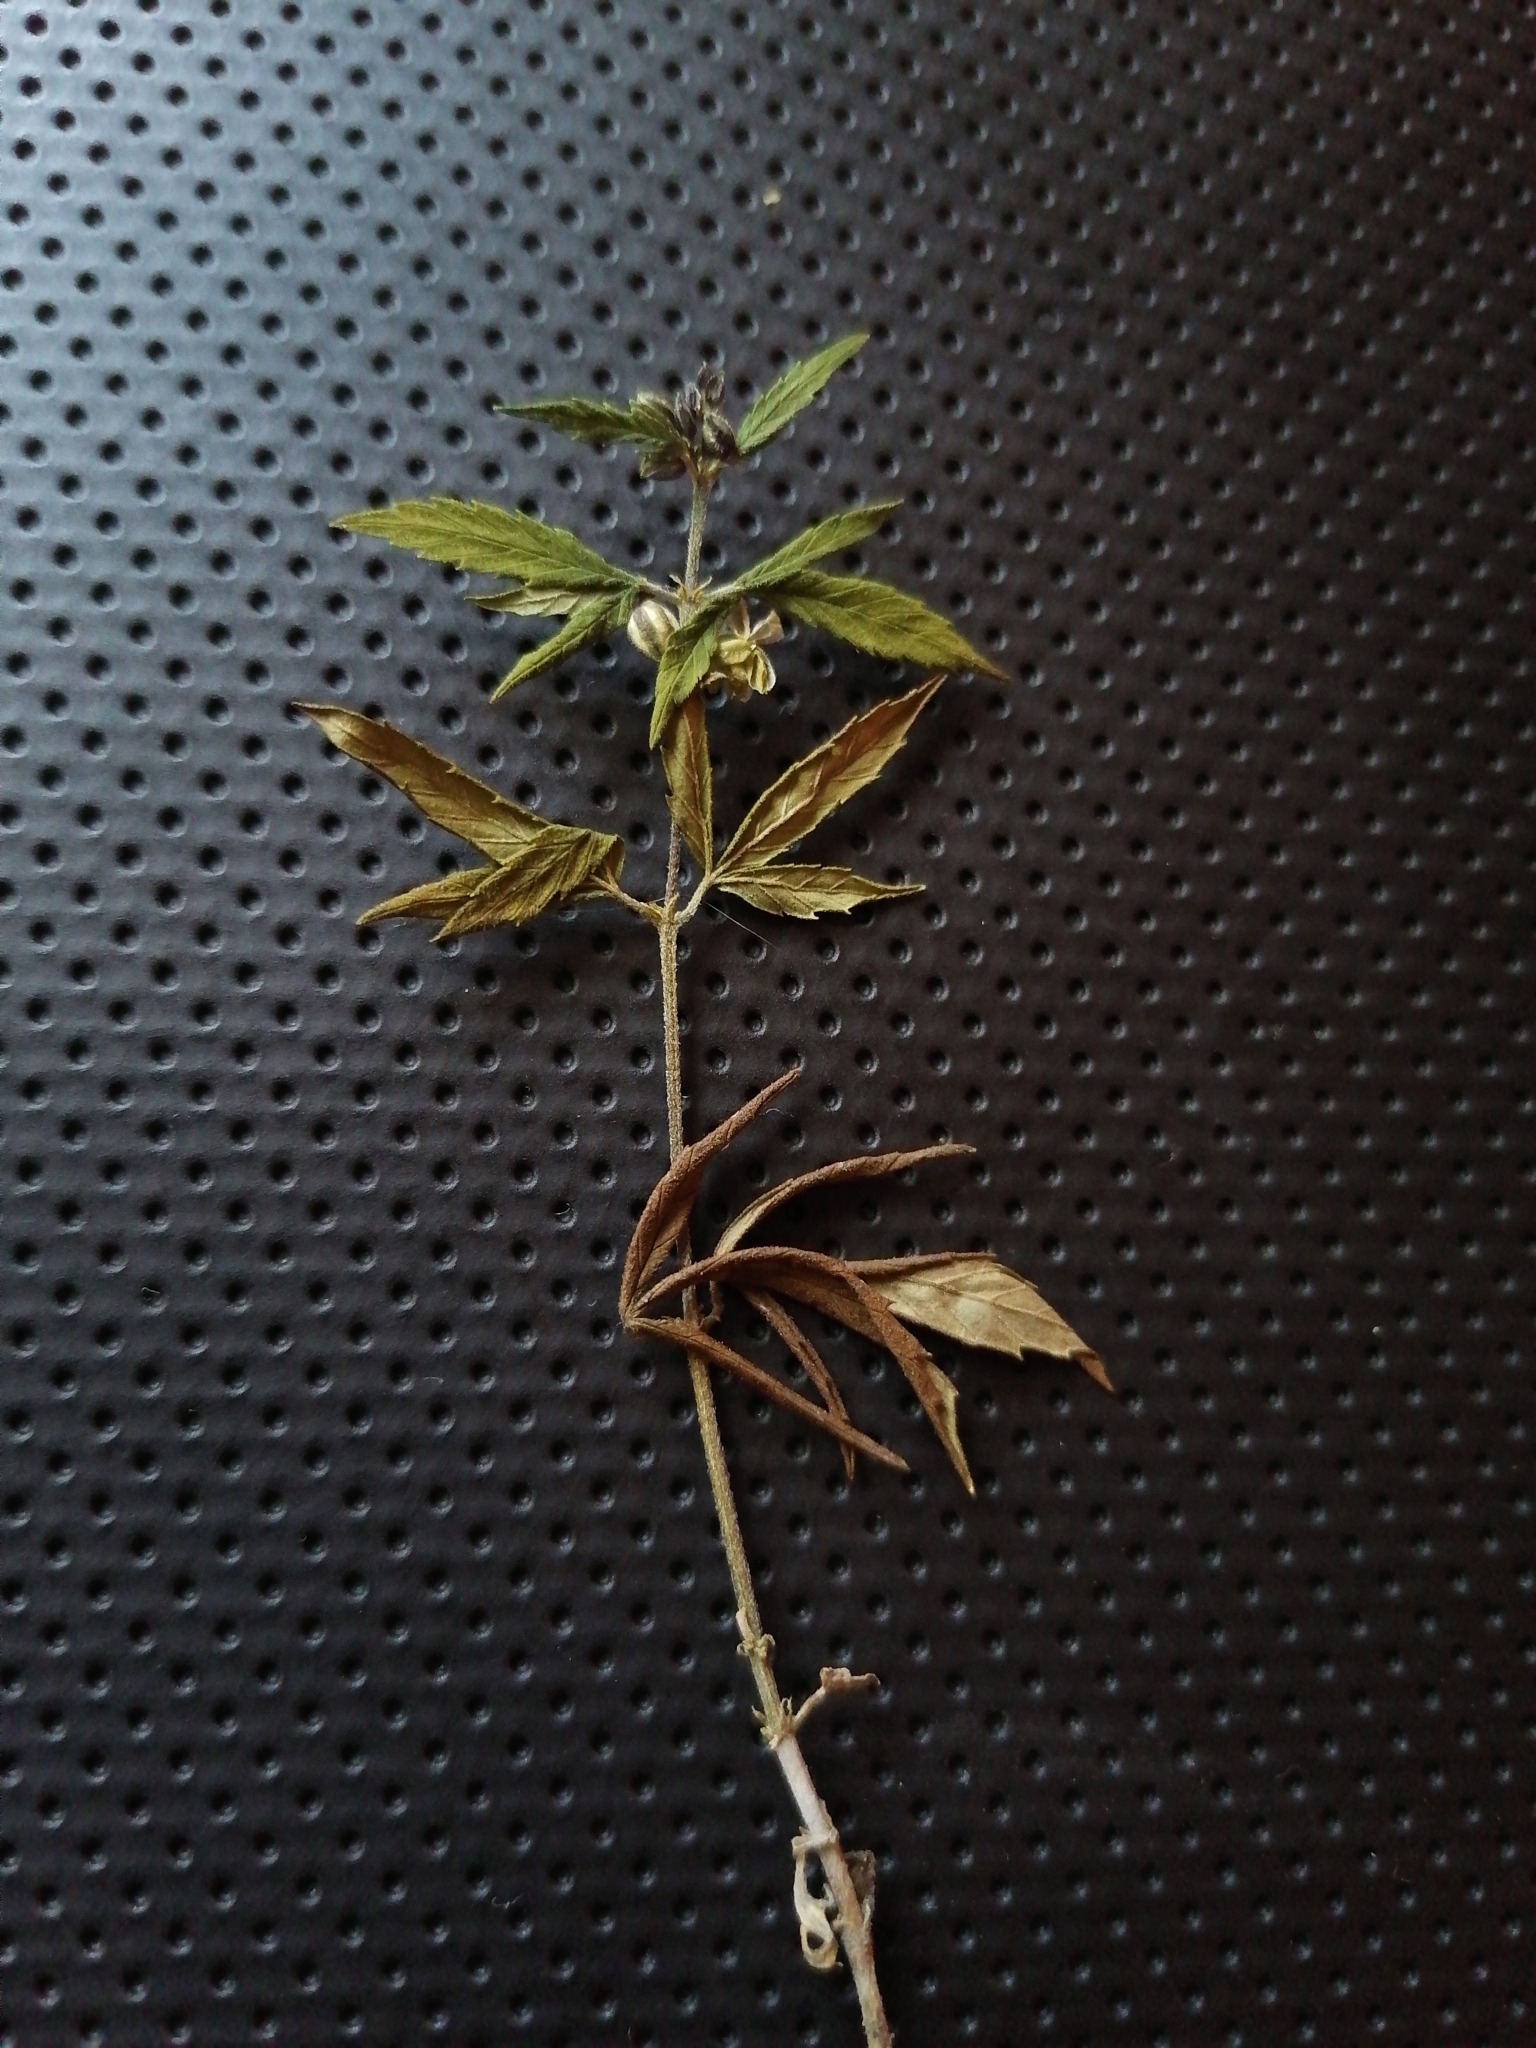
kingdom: Plantae
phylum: Tracheophyta
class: Magnoliopsida
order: Rosales
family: Cannabaceae
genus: Cannabis
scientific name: Cannabis sativa
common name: Hemp
